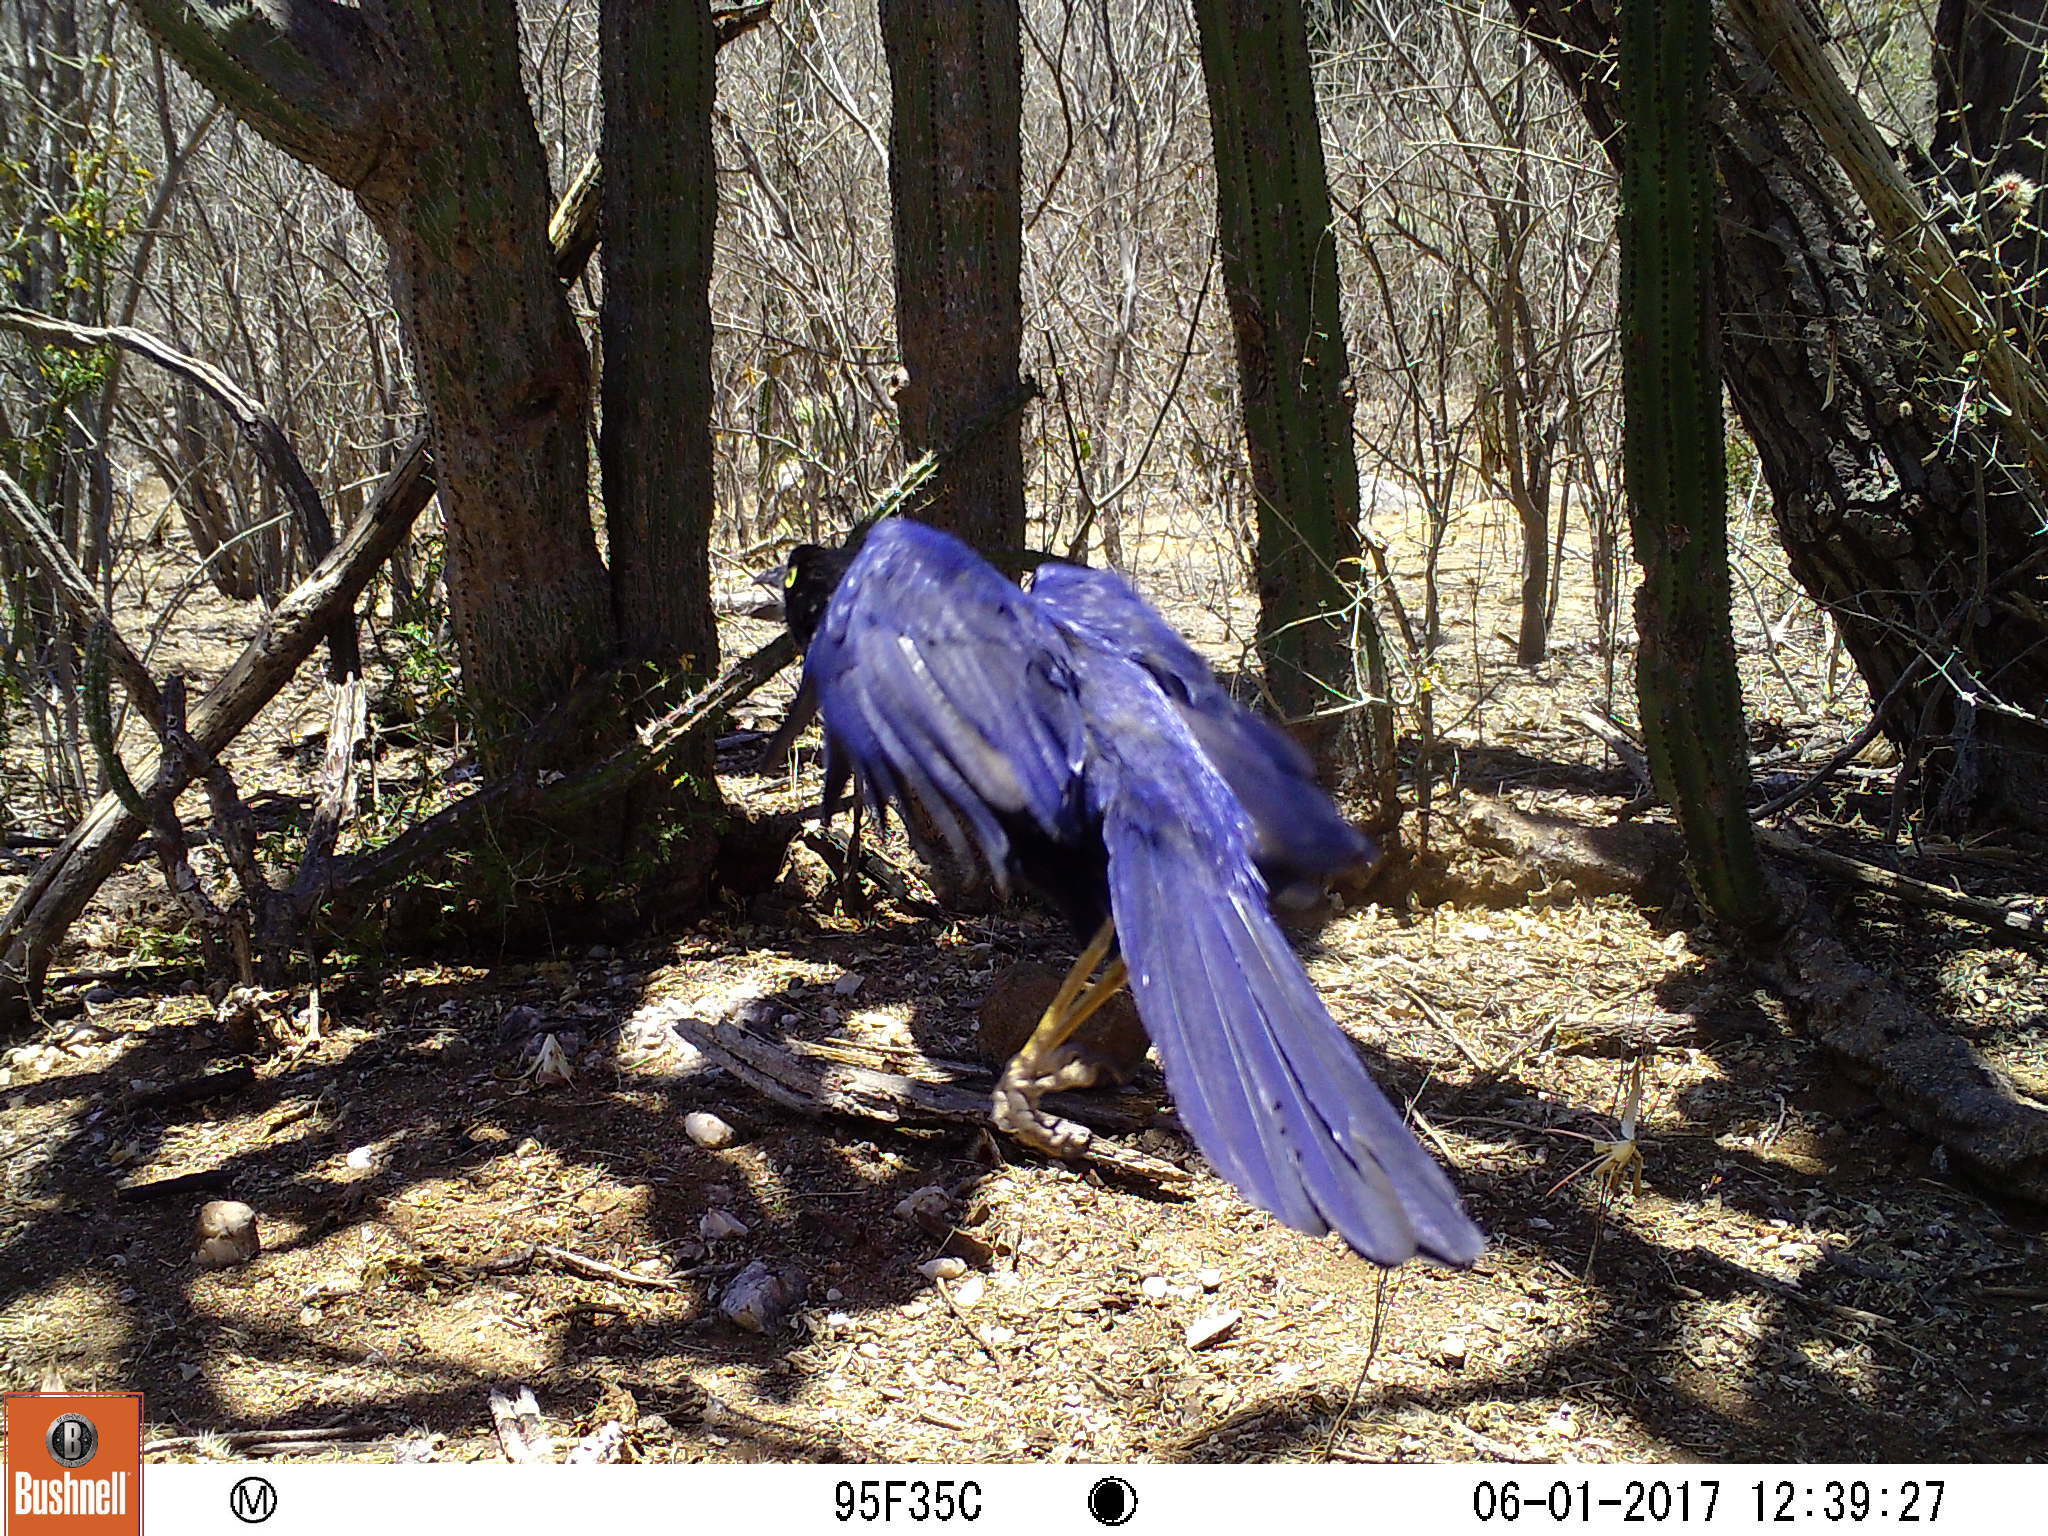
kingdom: Animalia
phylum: Chordata
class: Aves
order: Passeriformes
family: Corvidae
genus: Cyanocorax
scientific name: Cyanocorax beecheii
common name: Purplish-backed jay
